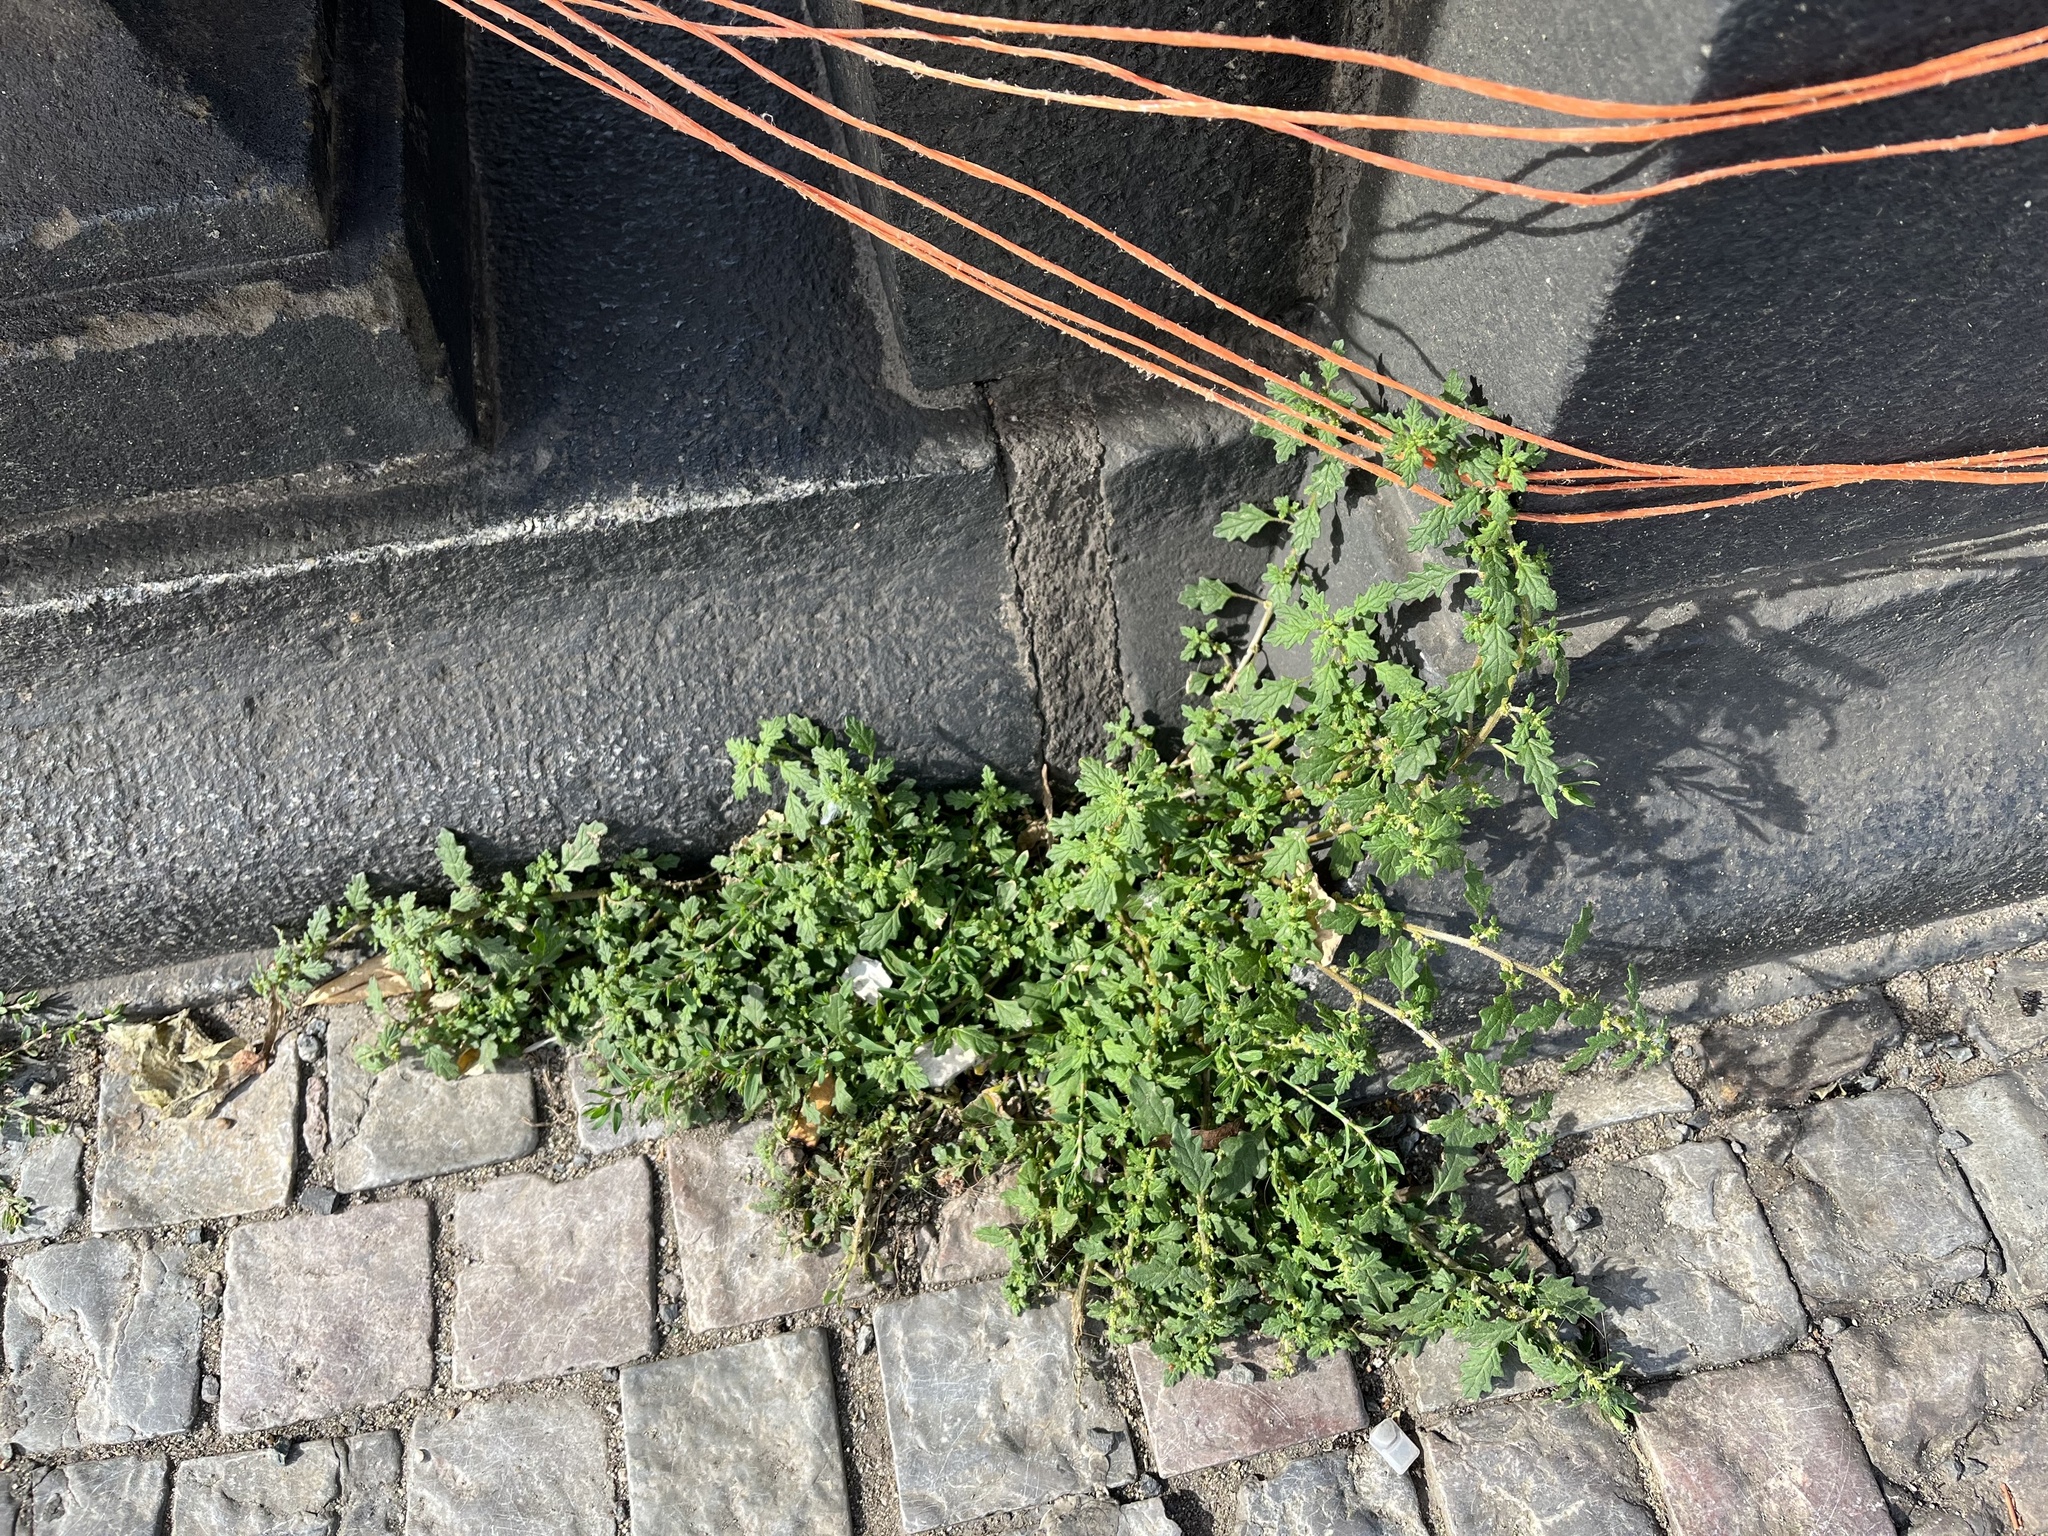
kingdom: Plantae
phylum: Tracheophyta
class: Magnoliopsida
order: Caryophyllales
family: Amaranthaceae
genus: Dysphania
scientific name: Dysphania pumilio
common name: Clammy goosefoot
